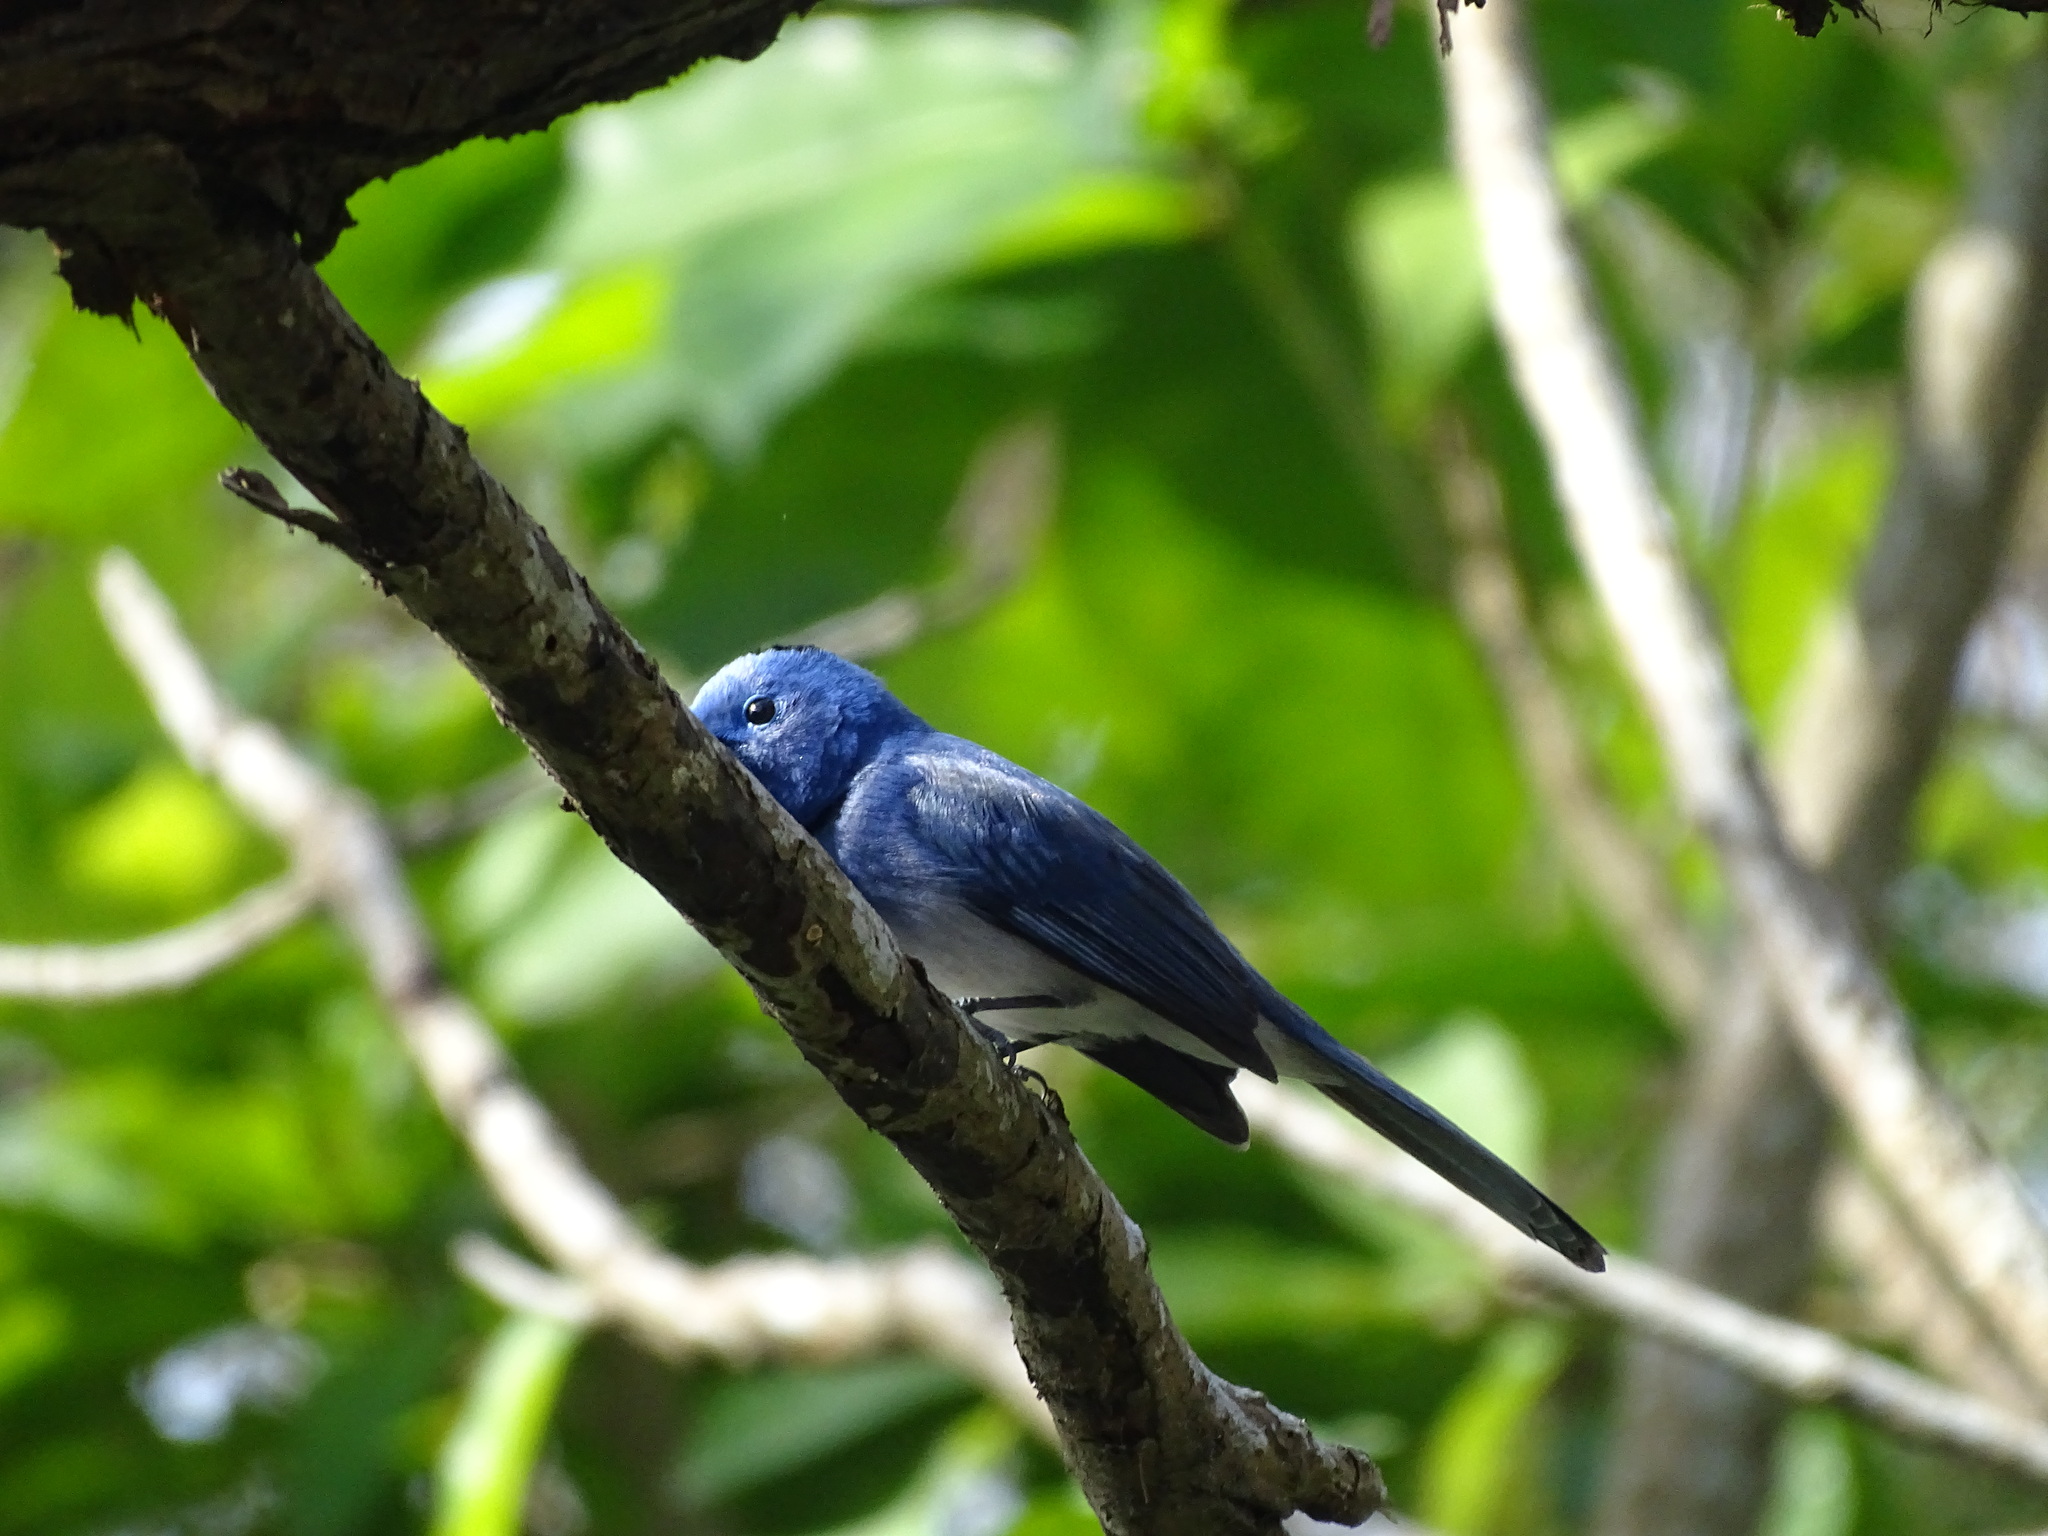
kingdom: Animalia
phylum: Chordata
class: Aves
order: Passeriformes
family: Monarchidae
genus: Hypothymis
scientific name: Hypothymis azurea
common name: Black-naped monarch
